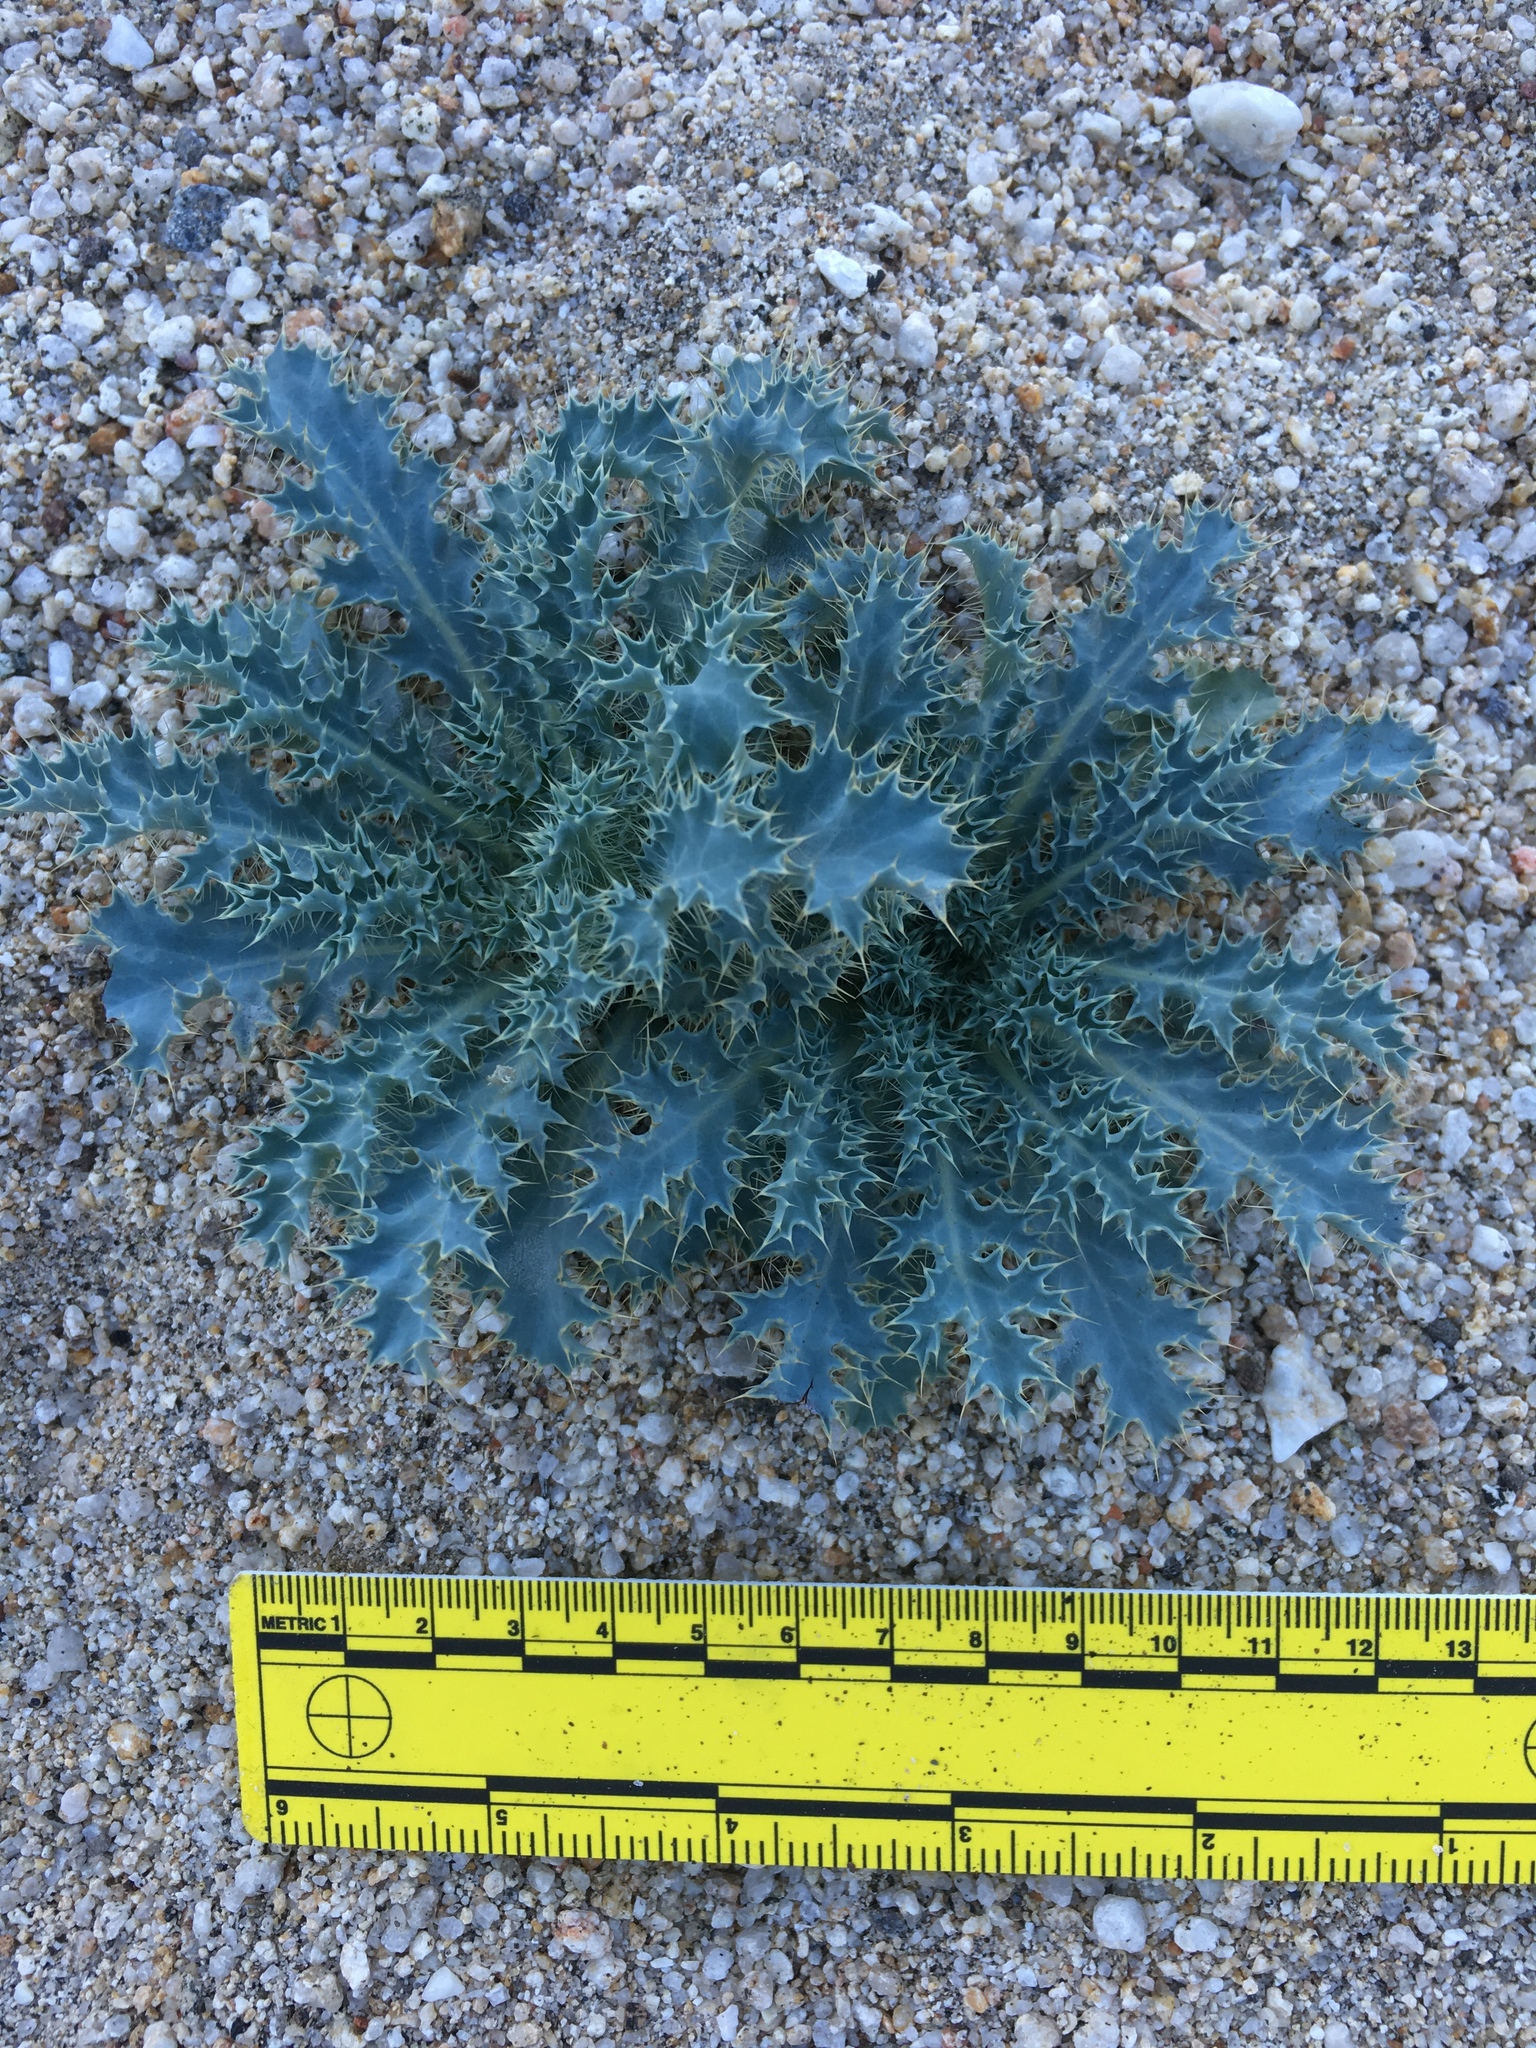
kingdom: Plantae
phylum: Tracheophyta
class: Magnoliopsida
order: Ranunculales
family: Papaveraceae
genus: Argemone
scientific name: Argemone munita
